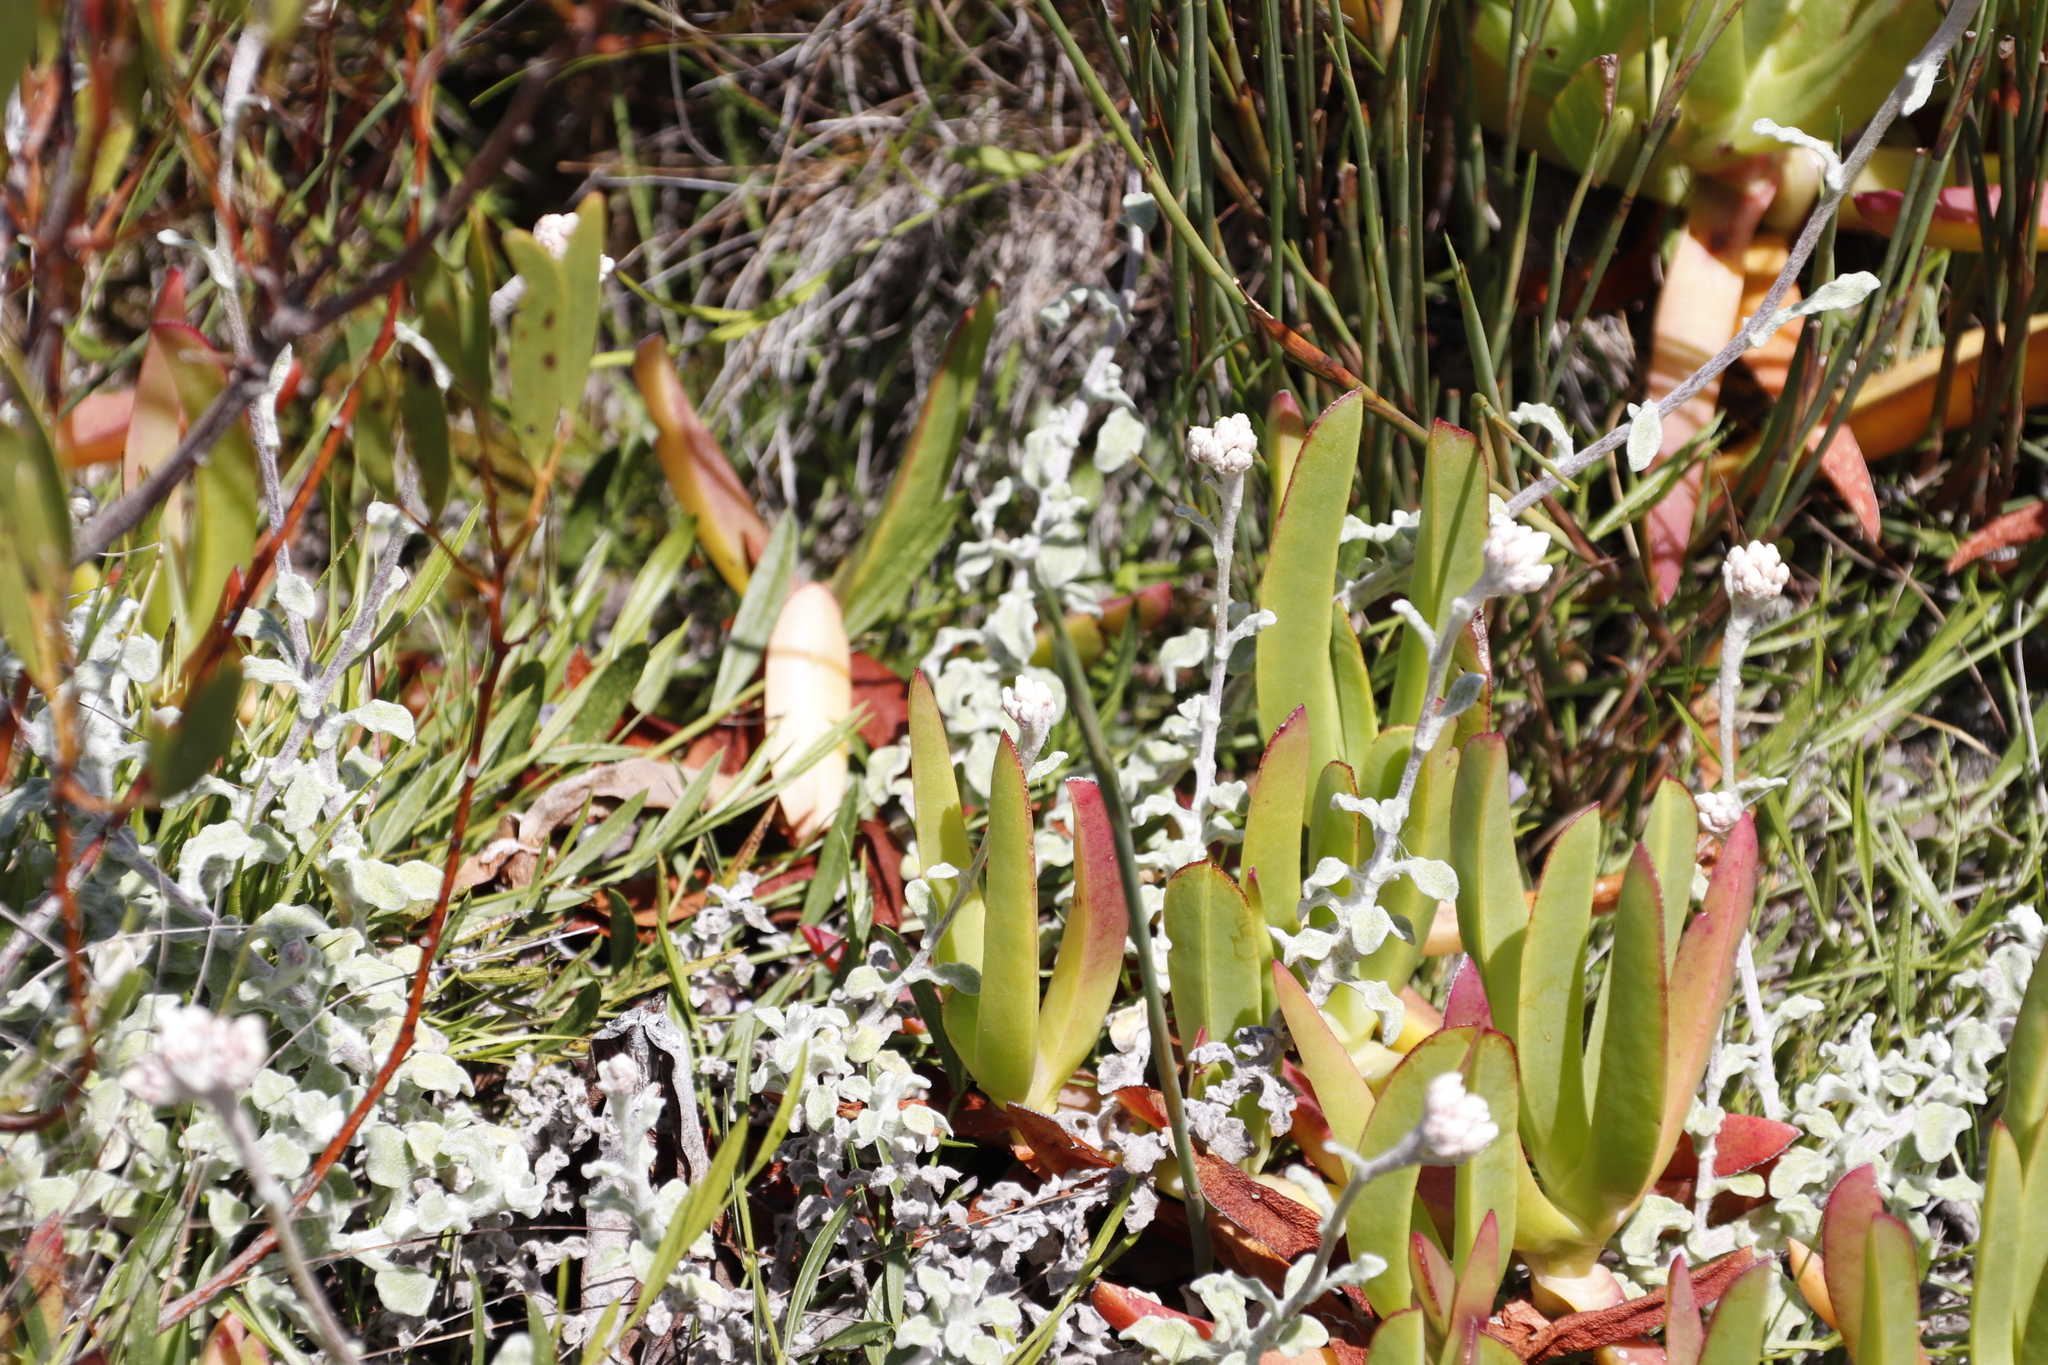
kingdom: Plantae
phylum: Tracheophyta
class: Magnoliopsida
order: Caryophyllales
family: Aizoaceae
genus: Carpobrotus
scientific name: Carpobrotus edulis
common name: Hottentot-fig
